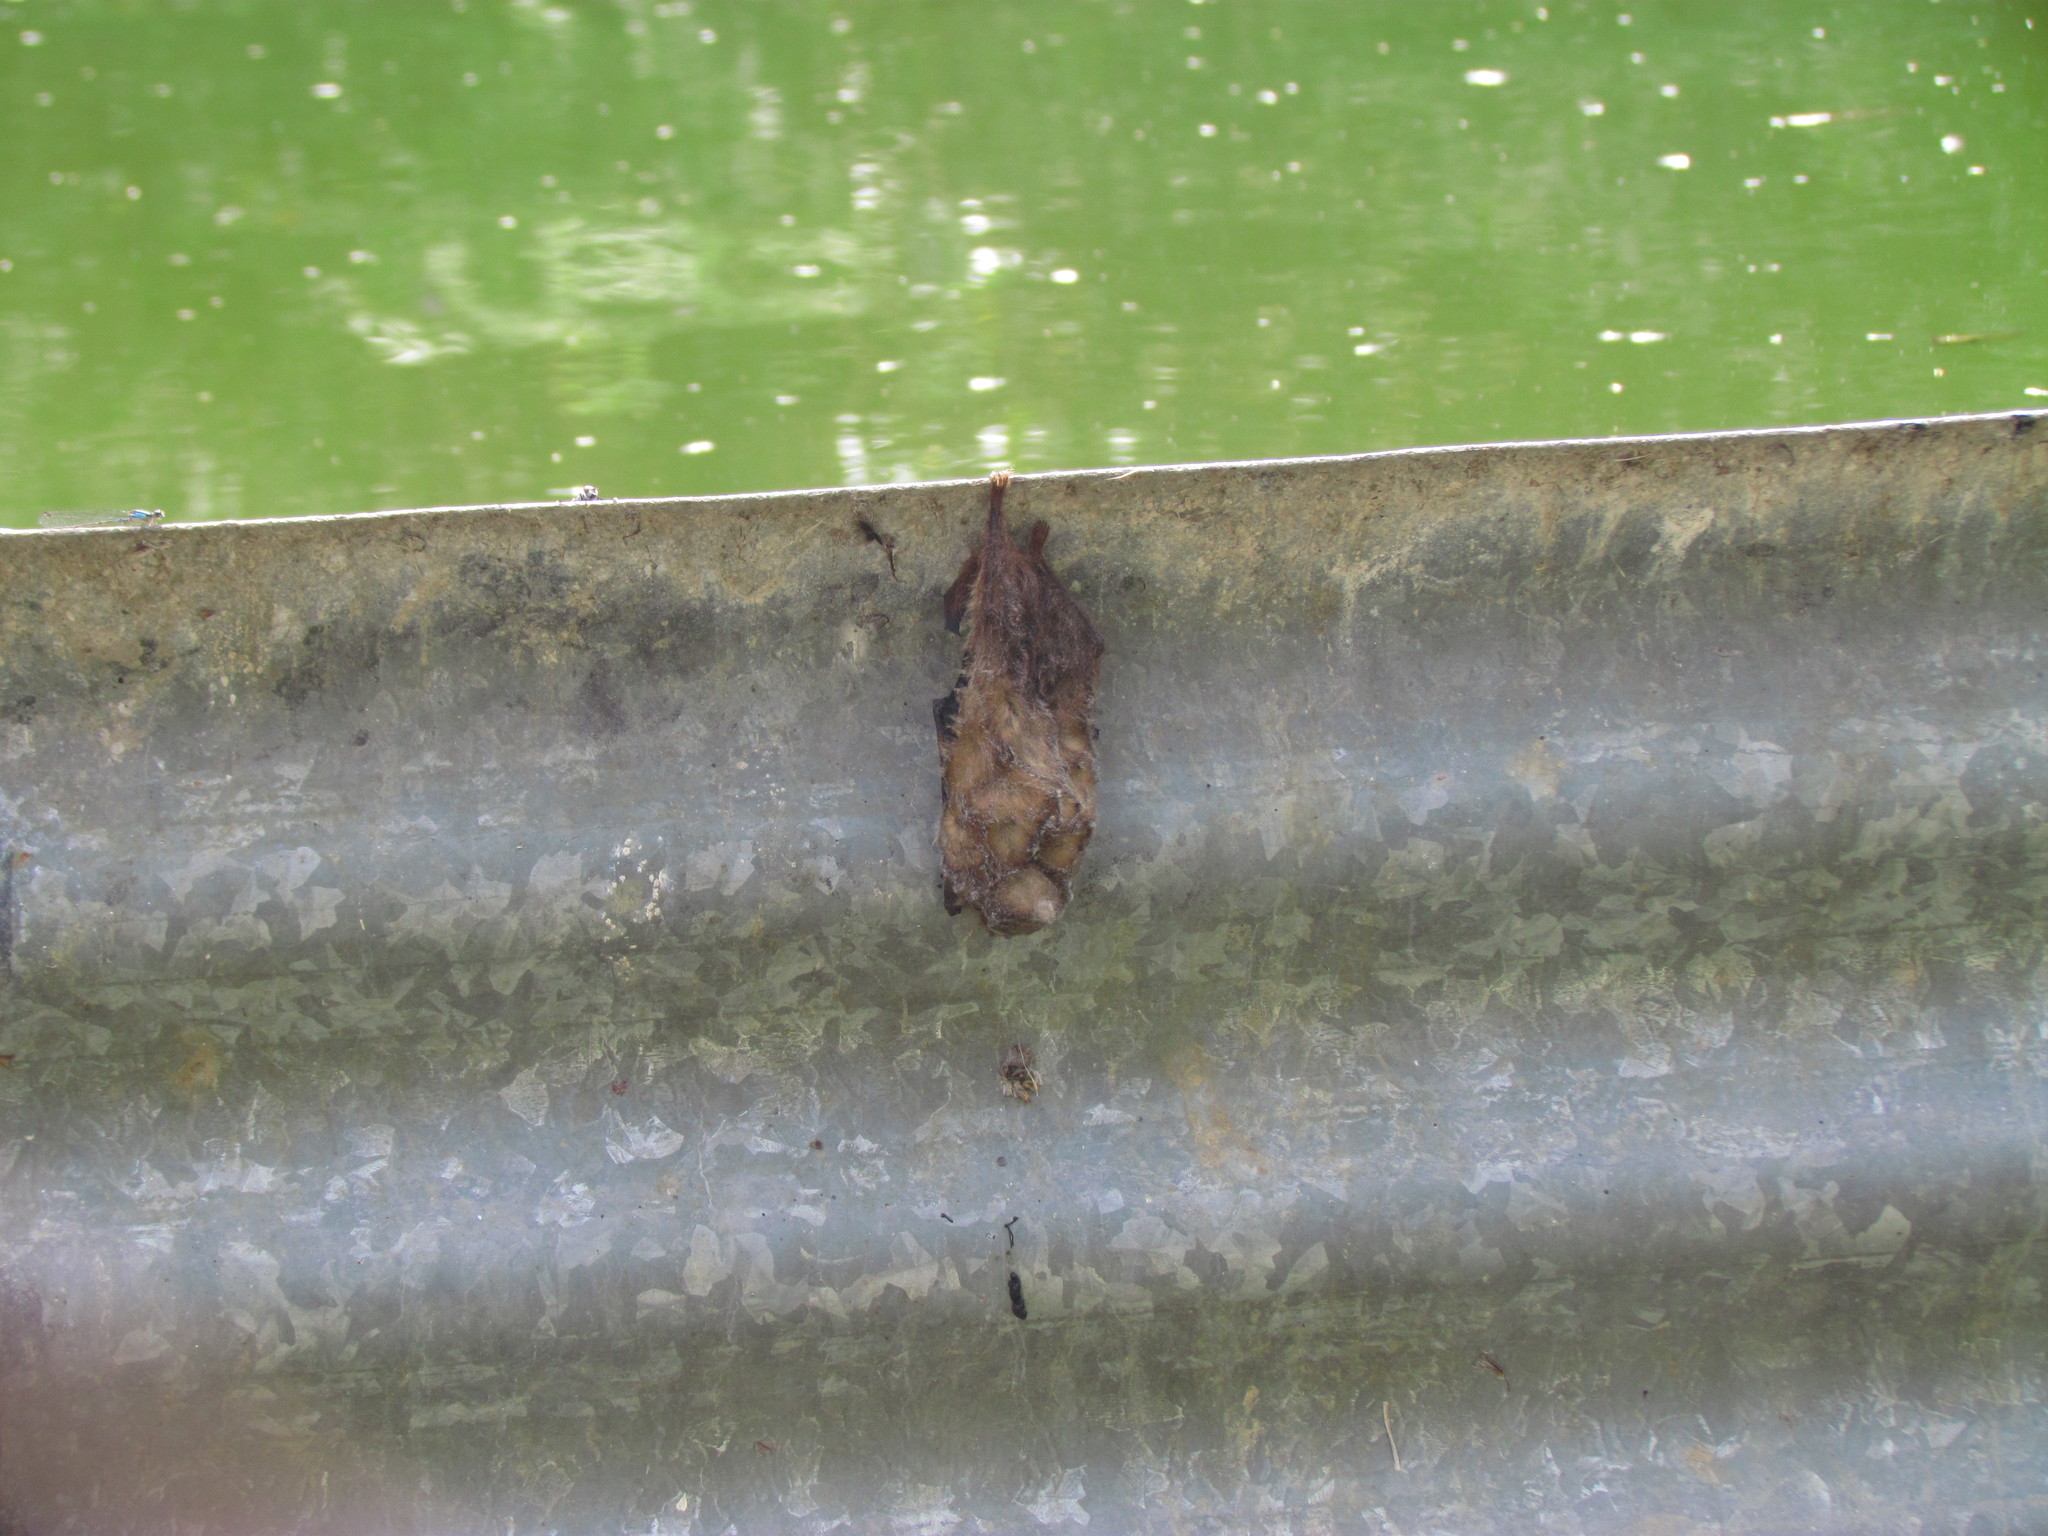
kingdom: Animalia
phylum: Chordata
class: Mammalia
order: Chiroptera
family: Vespertilionidae
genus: Lasiurus
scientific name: Lasiurus blossevillii
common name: Southern red bat
